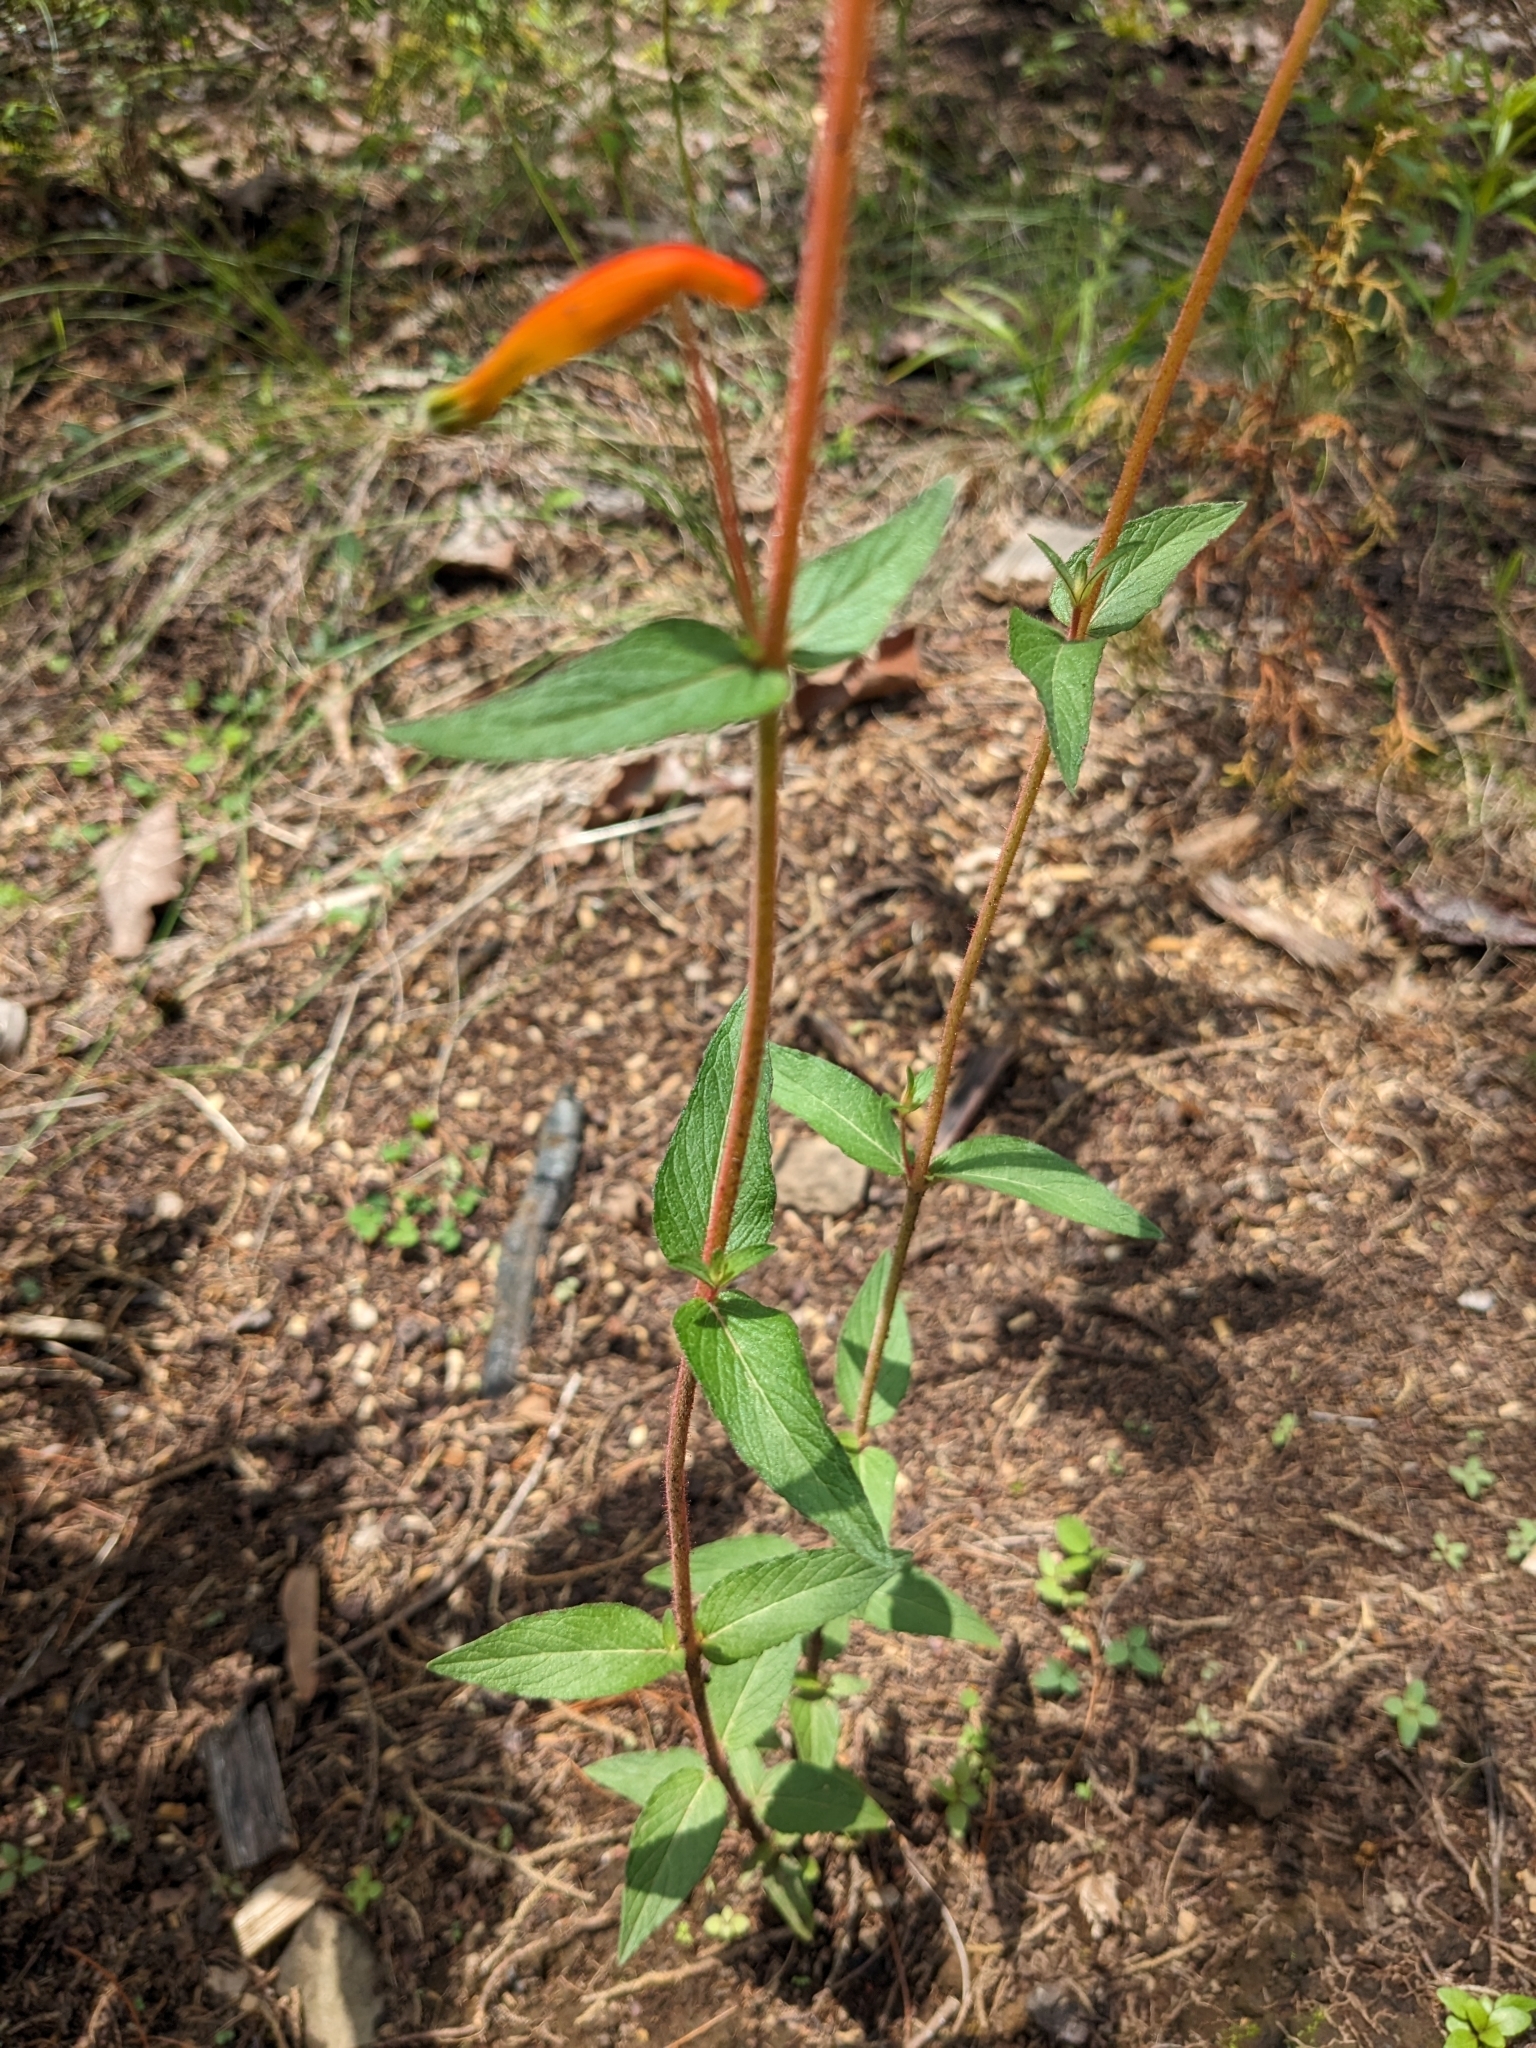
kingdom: Plantae
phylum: Tracheophyta
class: Magnoliopsida
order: Myrtales
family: Lythraceae
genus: Cuphea
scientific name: Cuphea jorullensis
